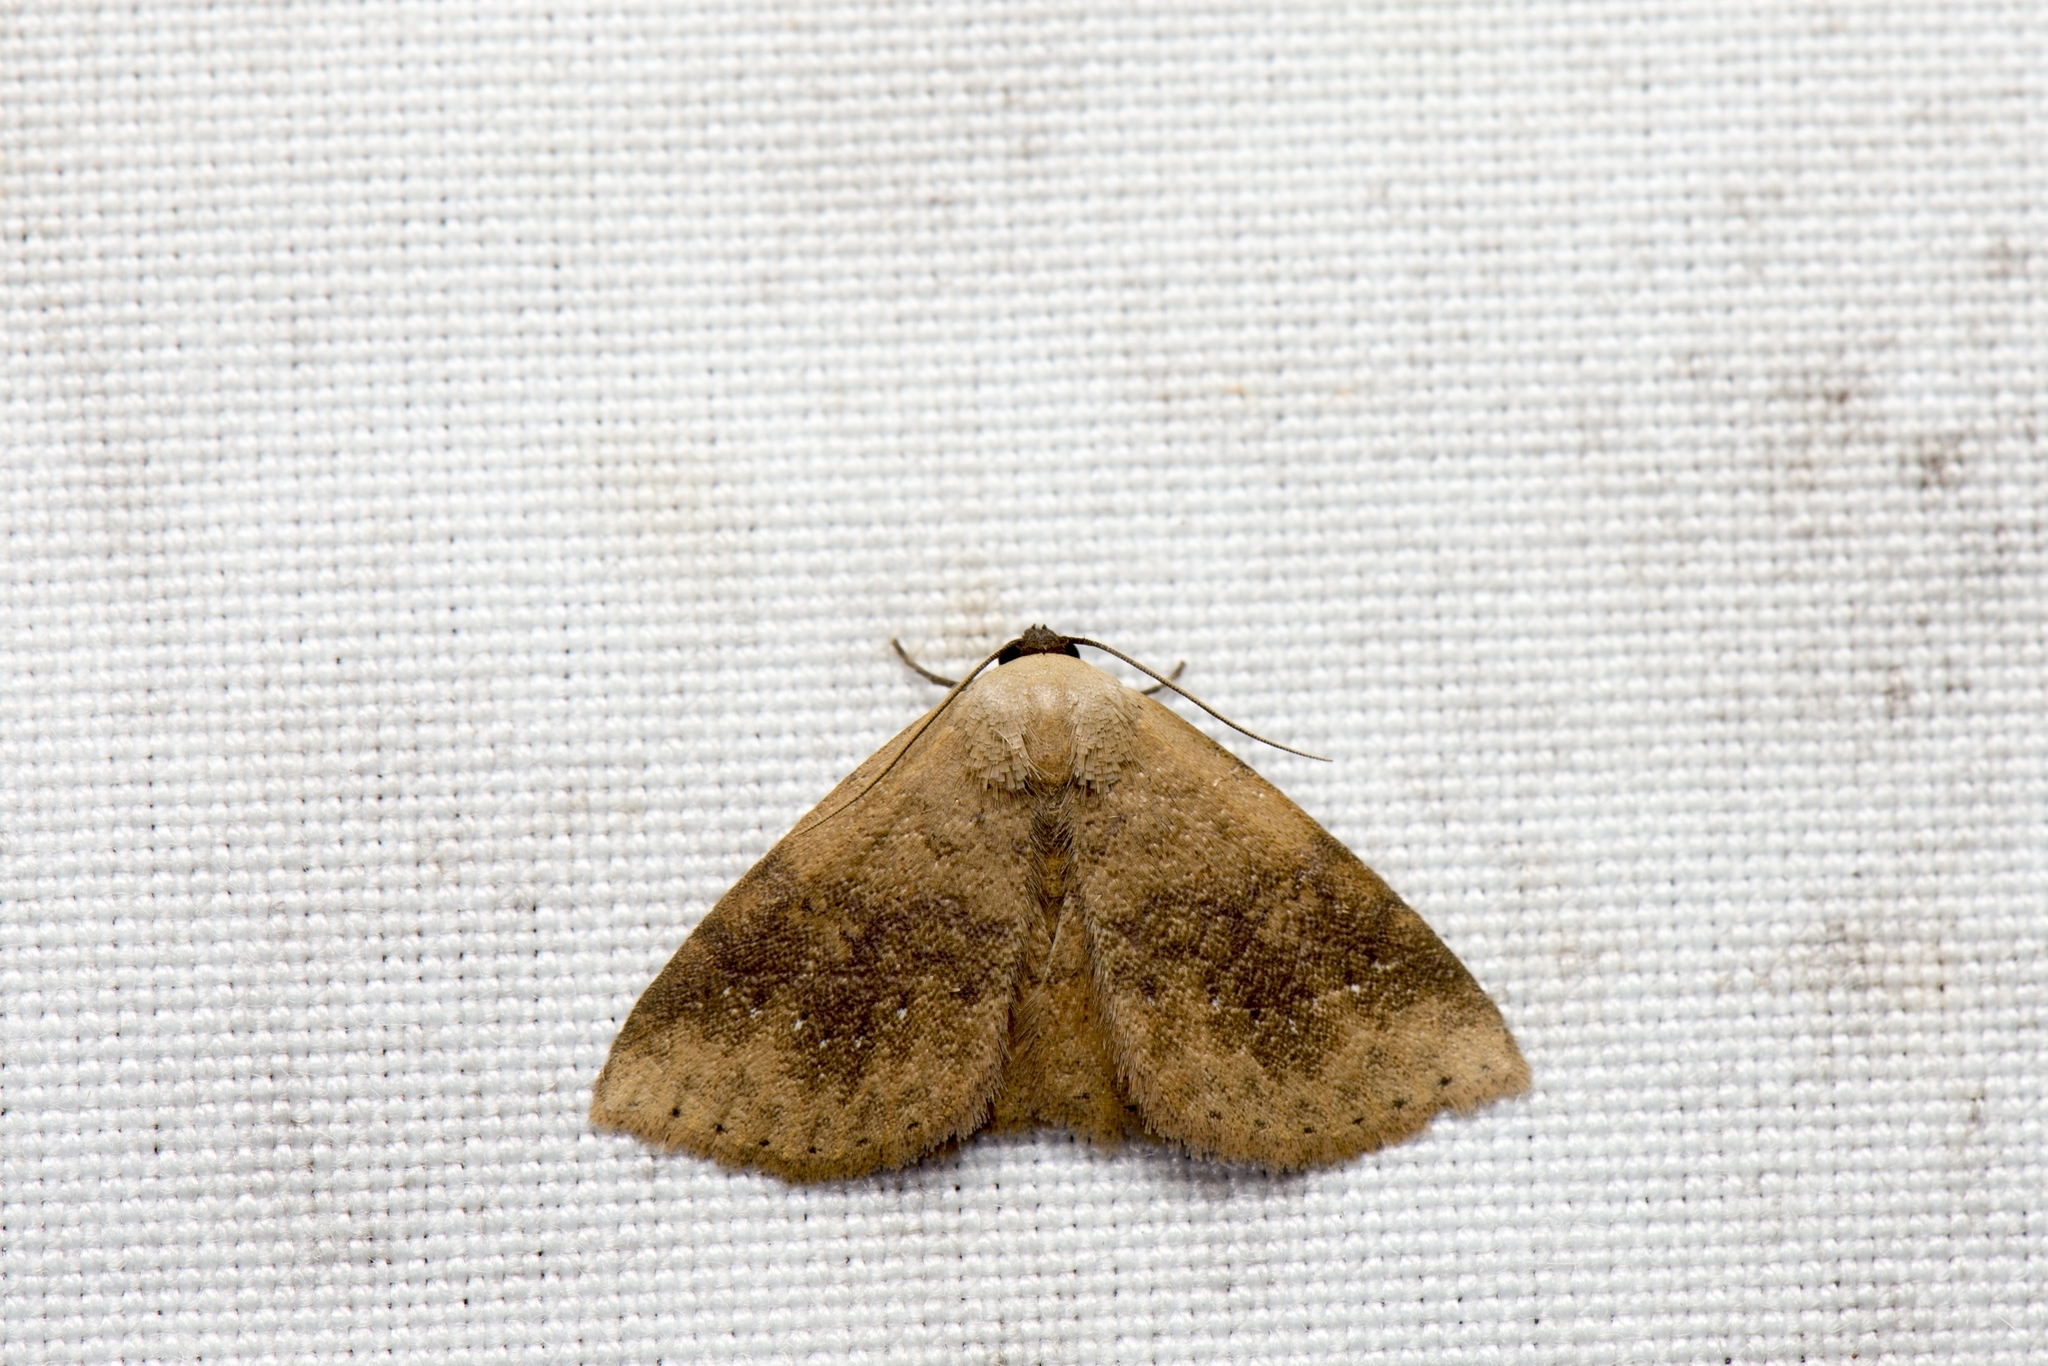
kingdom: Animalia
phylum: Arthropoda
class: Insecta
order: Lepidoptera
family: Noctuidae
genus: Oruza
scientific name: Oruza brunnea
